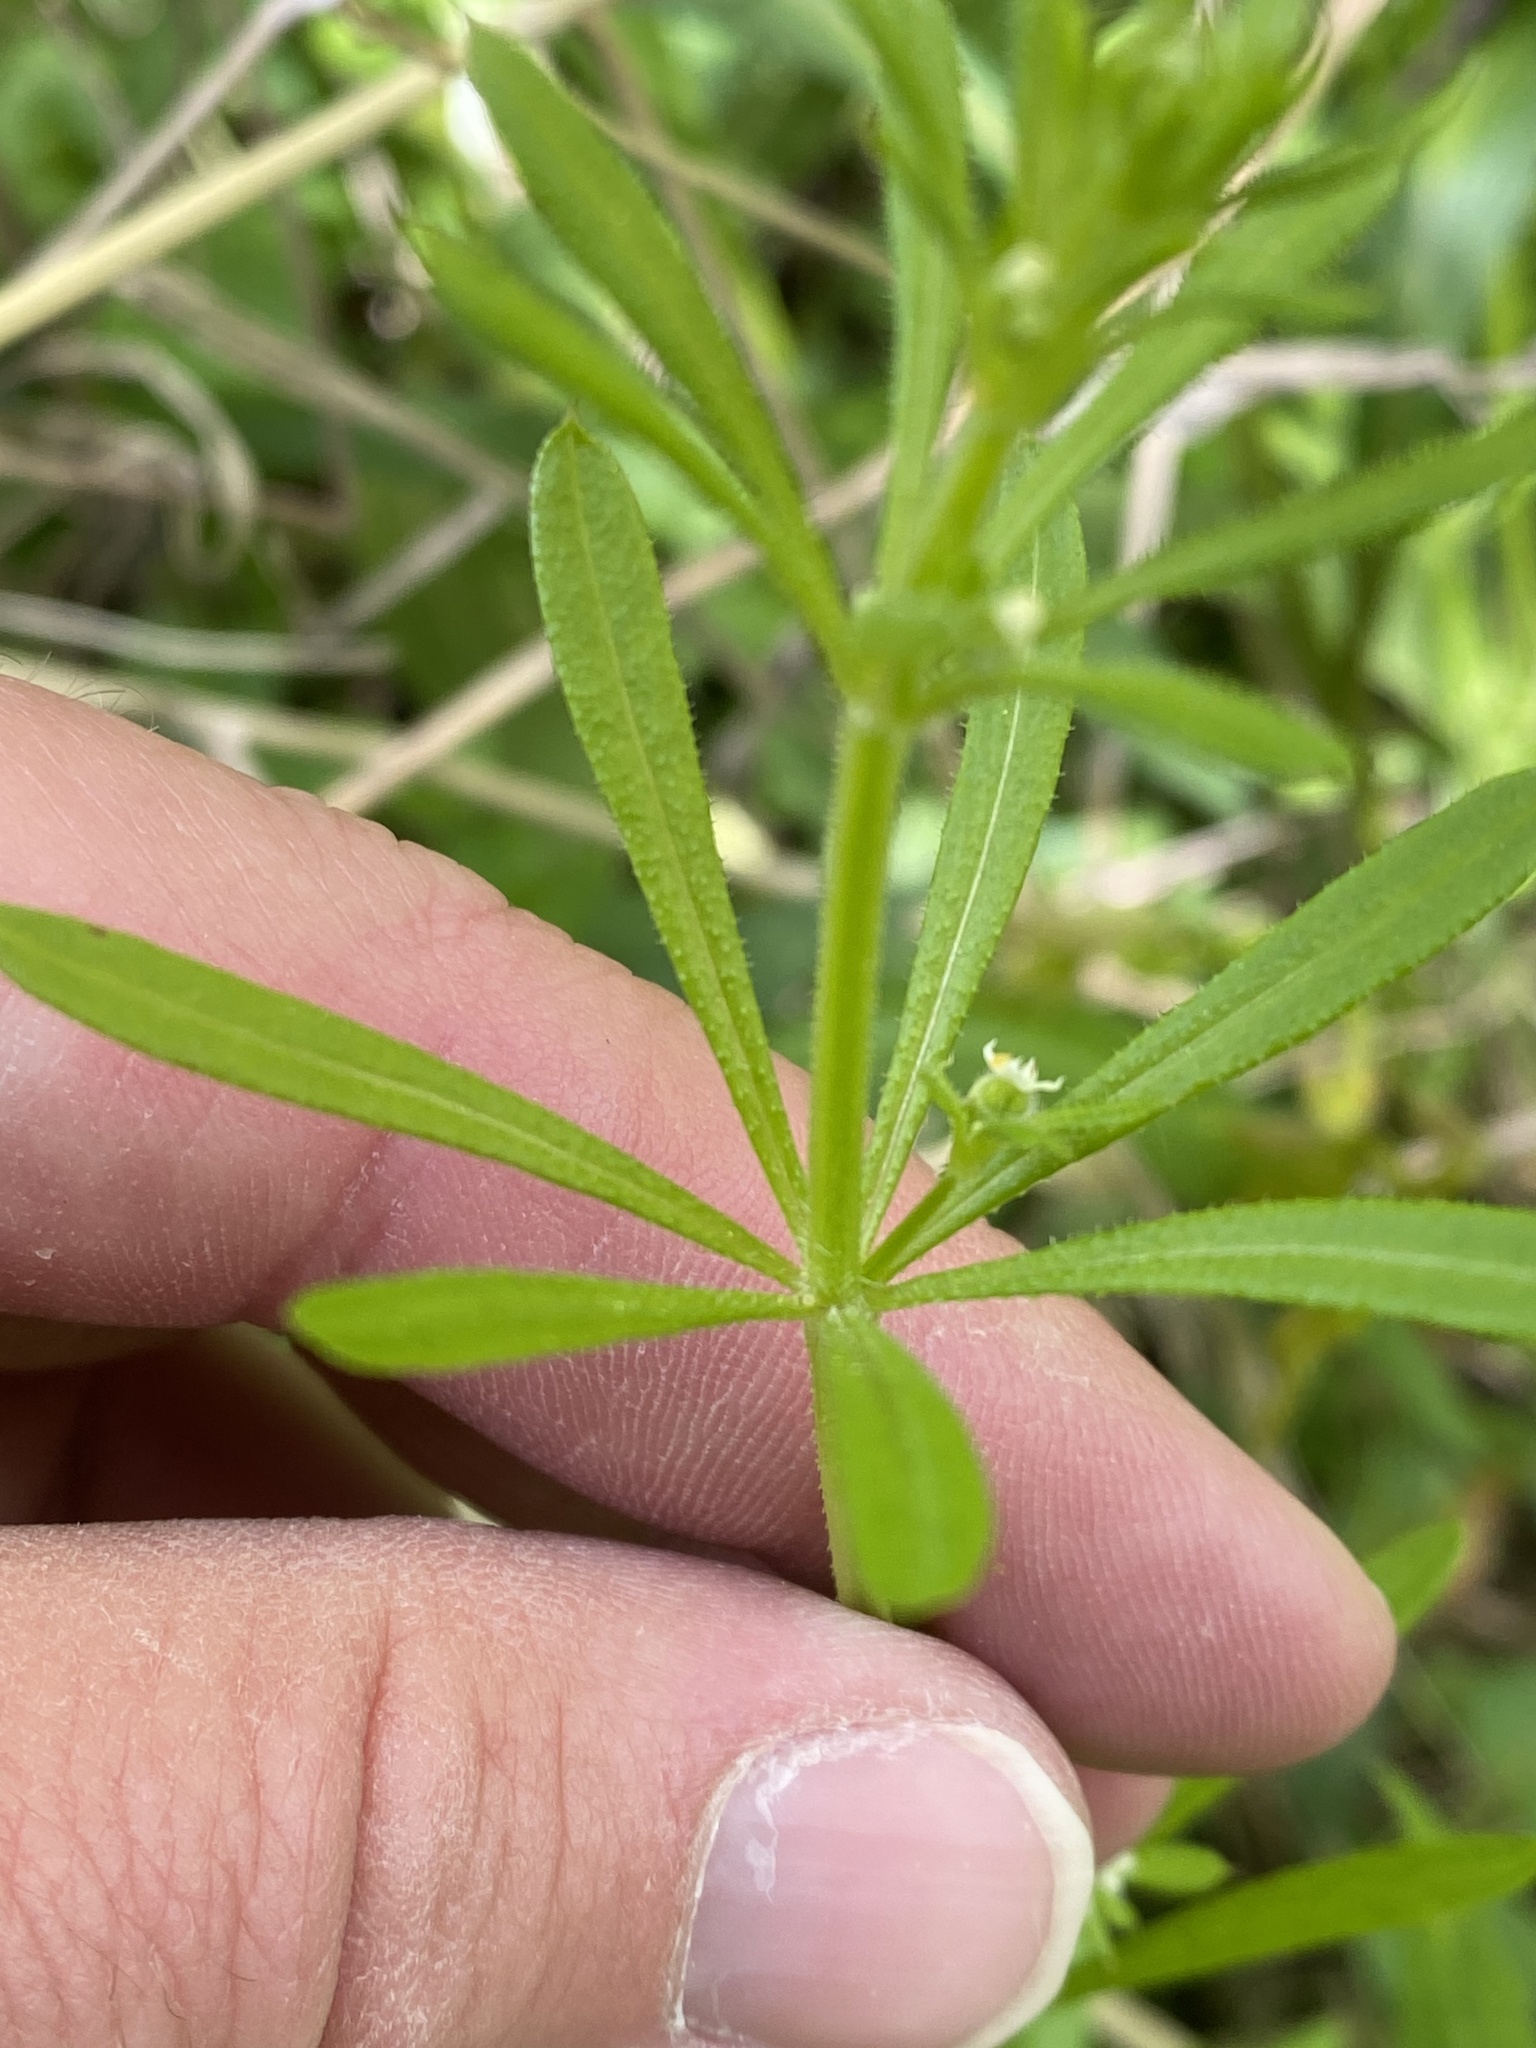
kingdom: Plantae
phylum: Tracheophyta
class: Magnoliopsida
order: Gentianales
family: Rubiaceae
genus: Galium
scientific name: Galium aparine
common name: Cleavers
